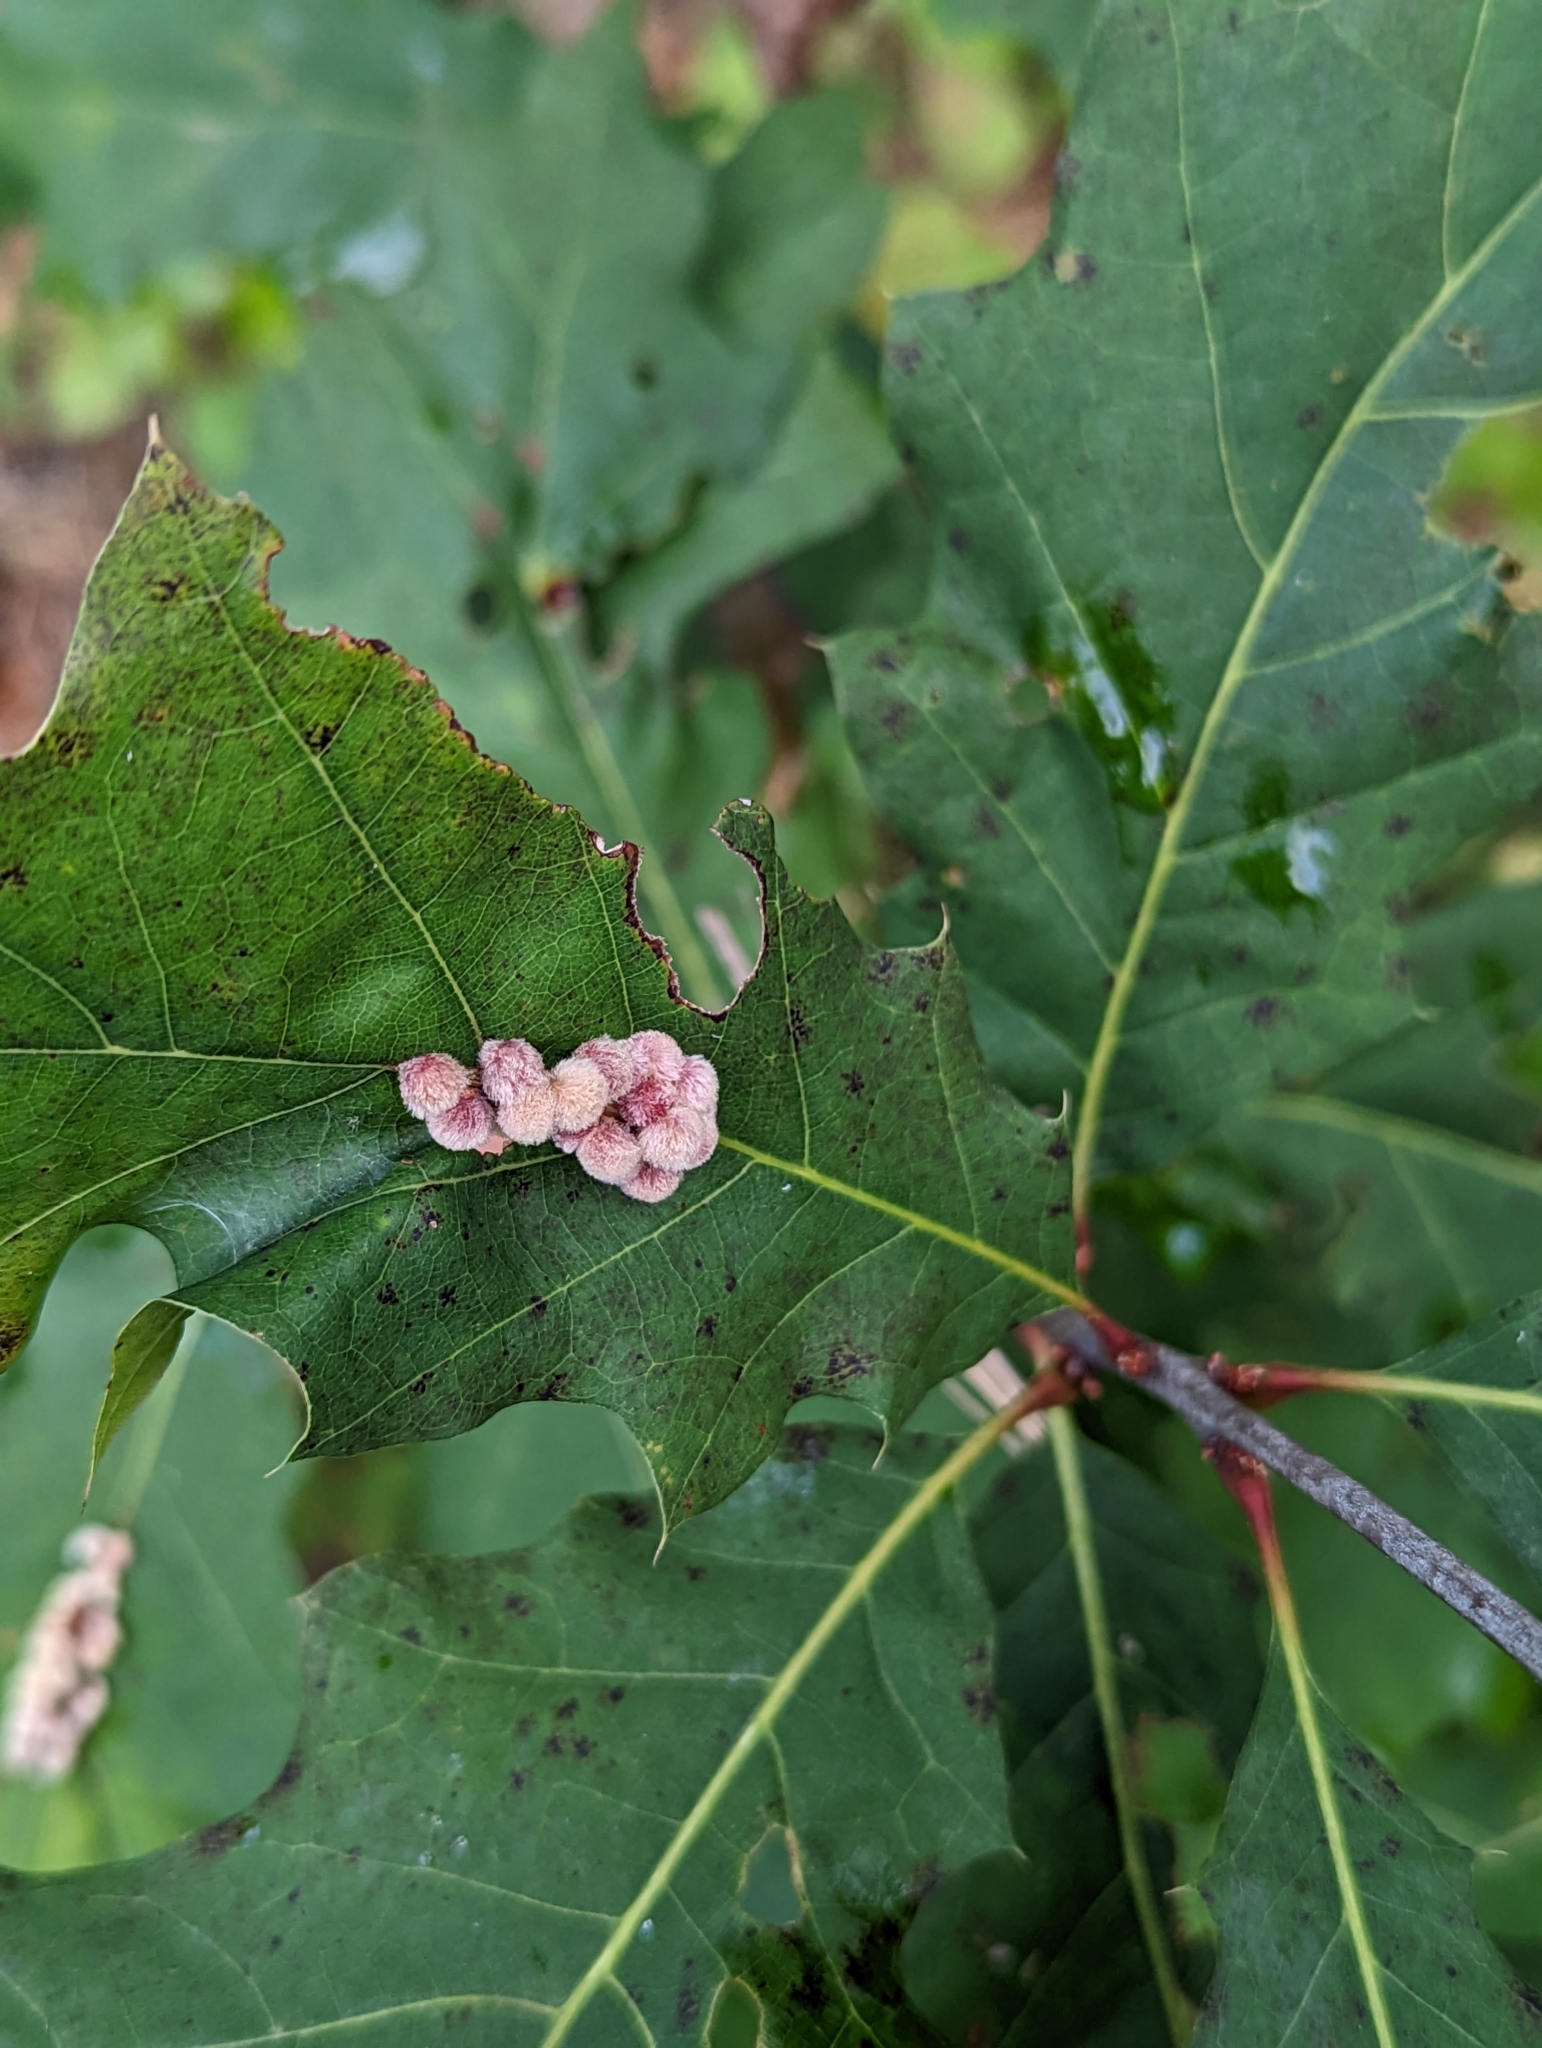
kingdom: Animalia
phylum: Arthropoda
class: Insecta
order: Hymenoptera
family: Cynipidae
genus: Callirhytis
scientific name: Callirhytis
